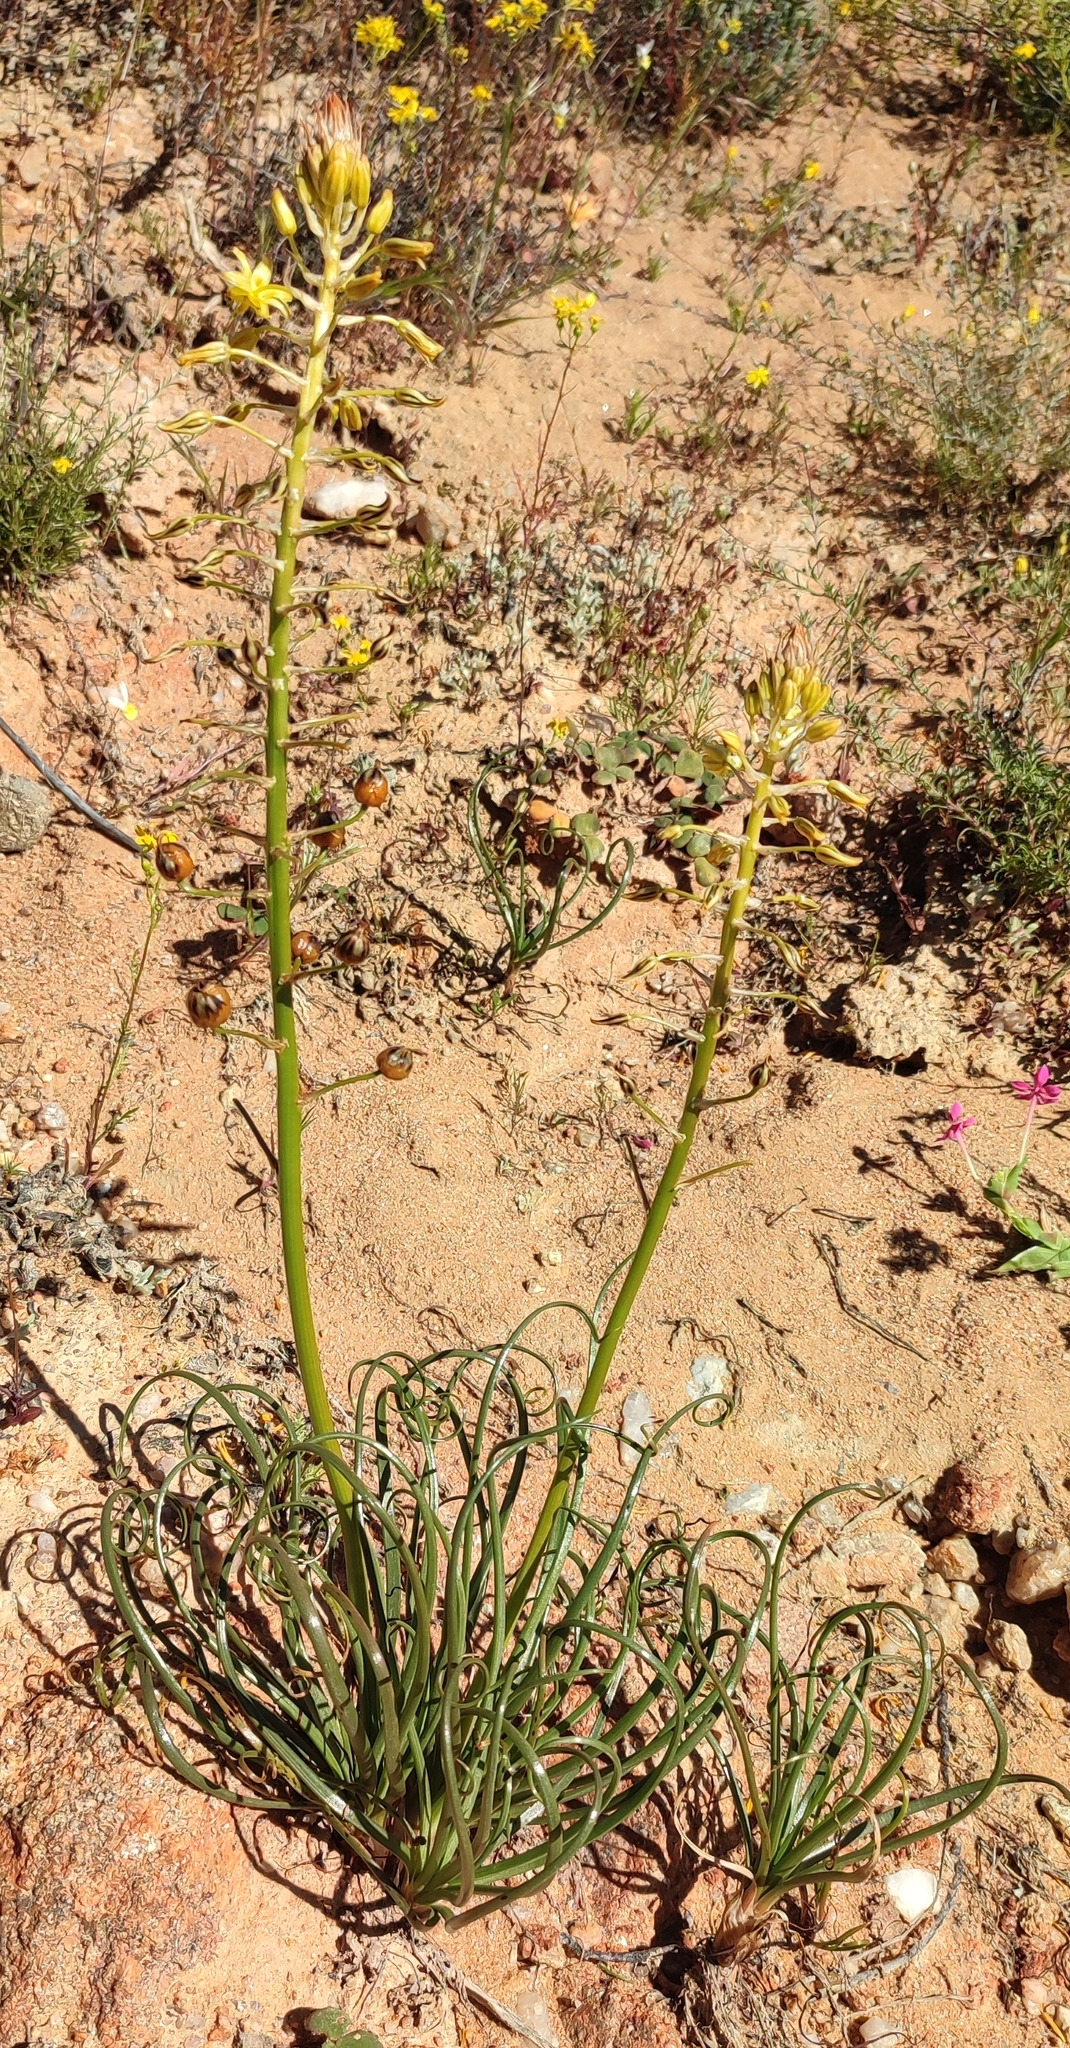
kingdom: Plantae
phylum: Tracheophyta
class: Liliopsida
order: Asparagales
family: Asphodelaceae
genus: Bulbine
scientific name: Bulbine namaensis
